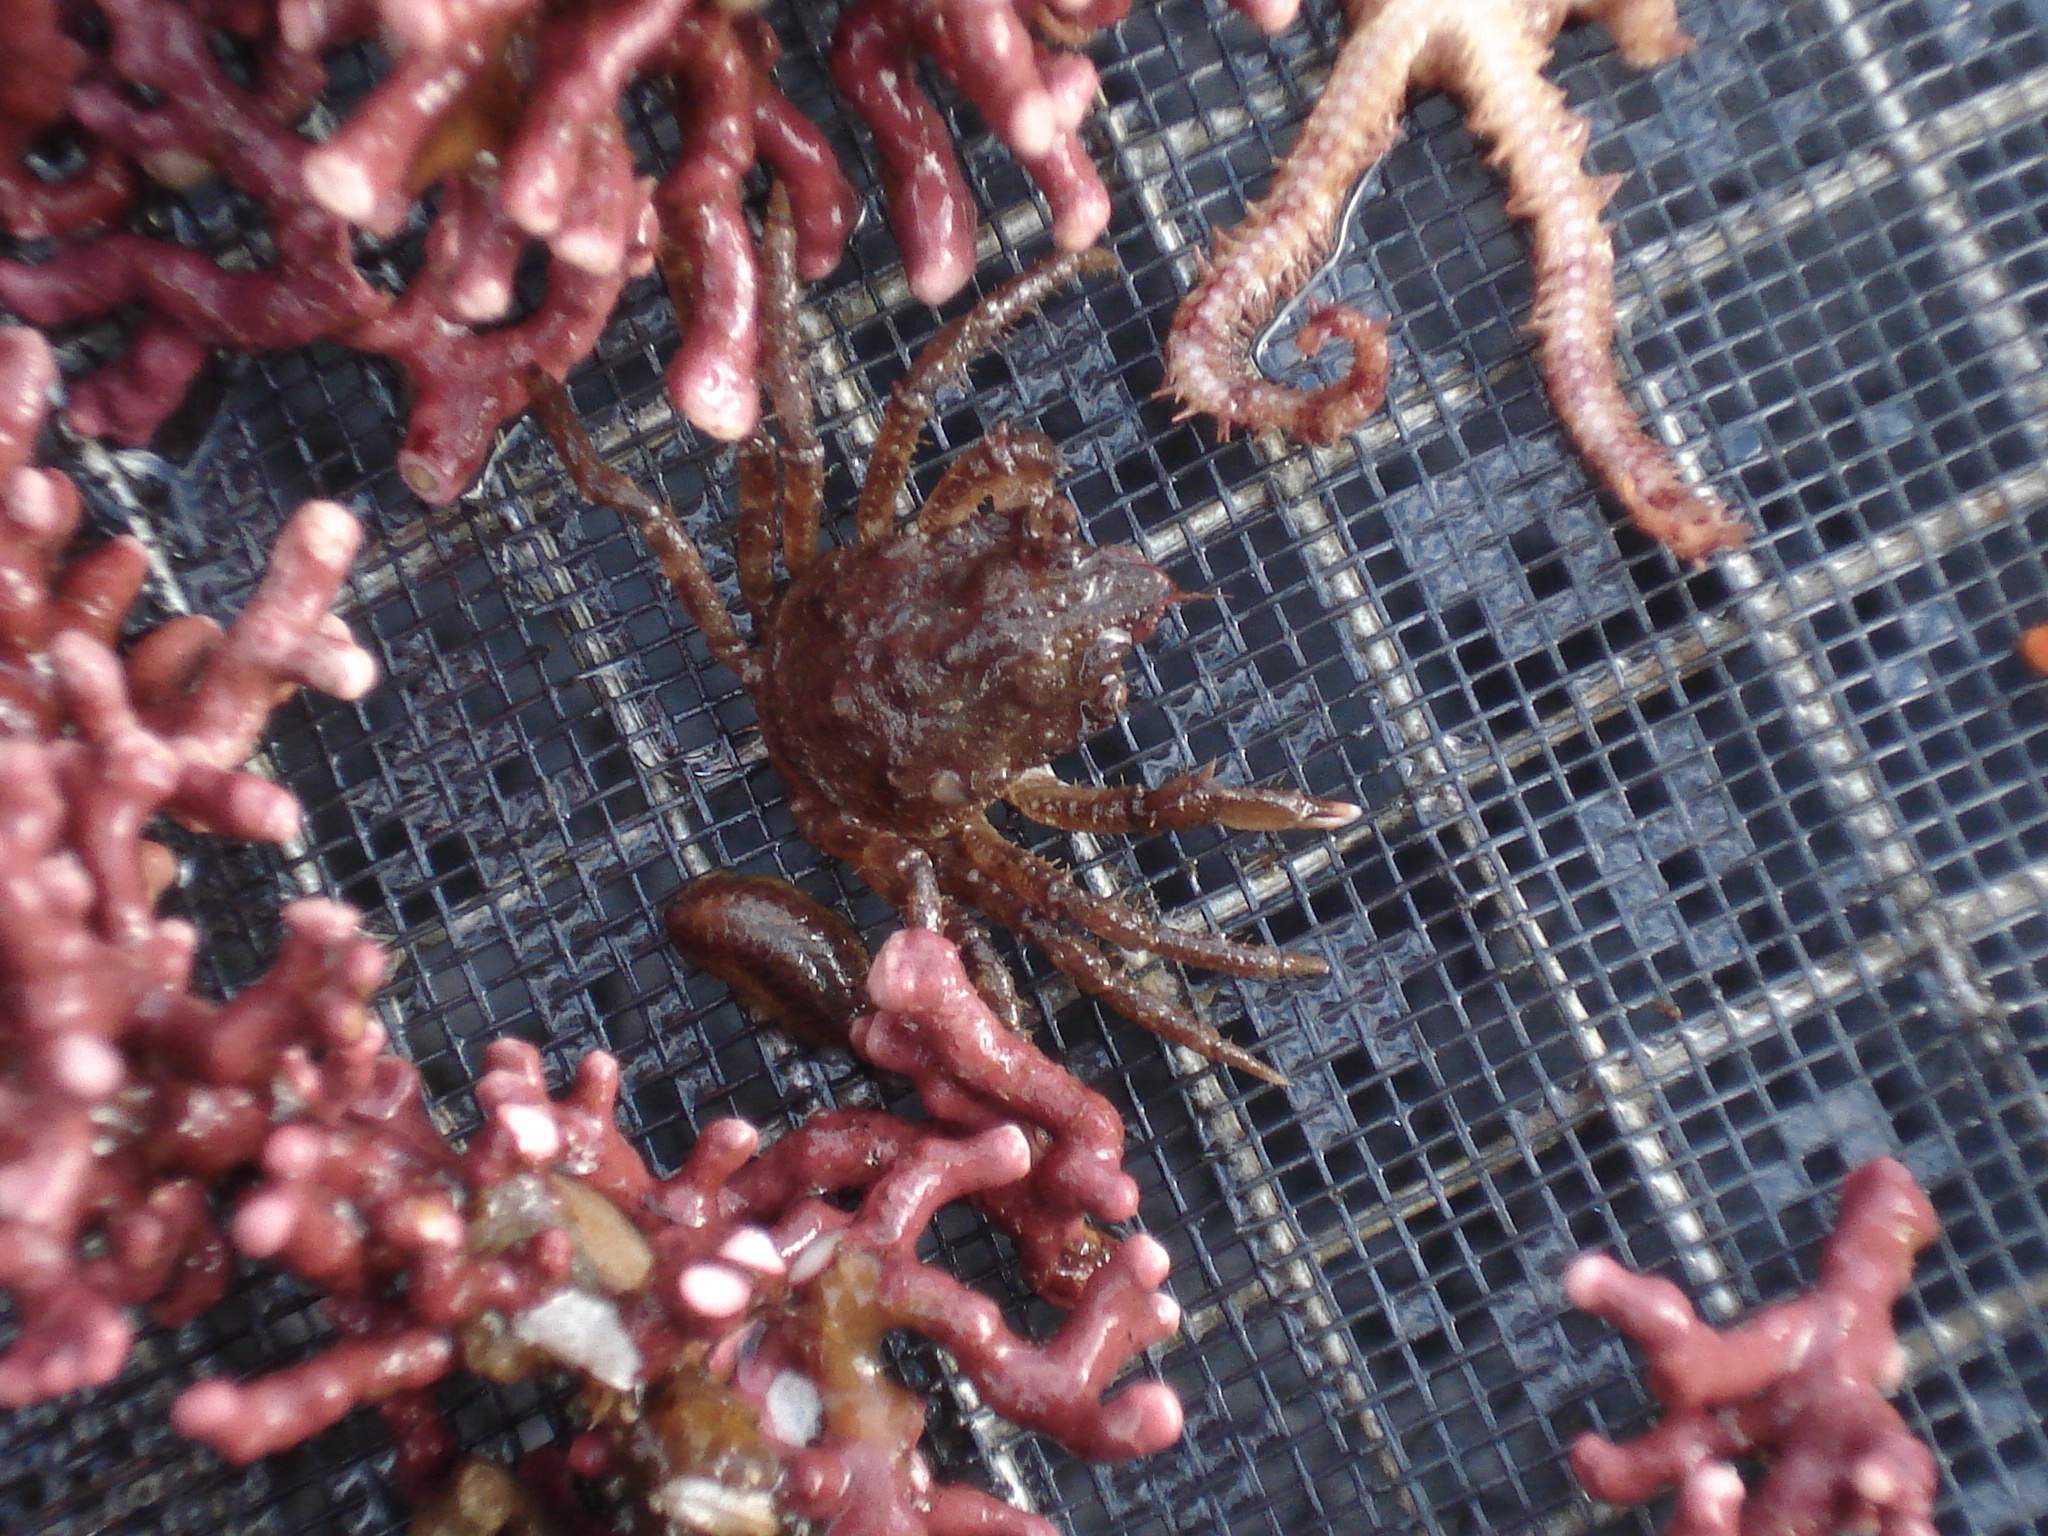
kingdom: Animalia
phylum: Arthropoda
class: Malacostraca
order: Decapoda
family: Oregoniidae
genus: Hyas
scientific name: Hyas araneus
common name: Great spider crab
